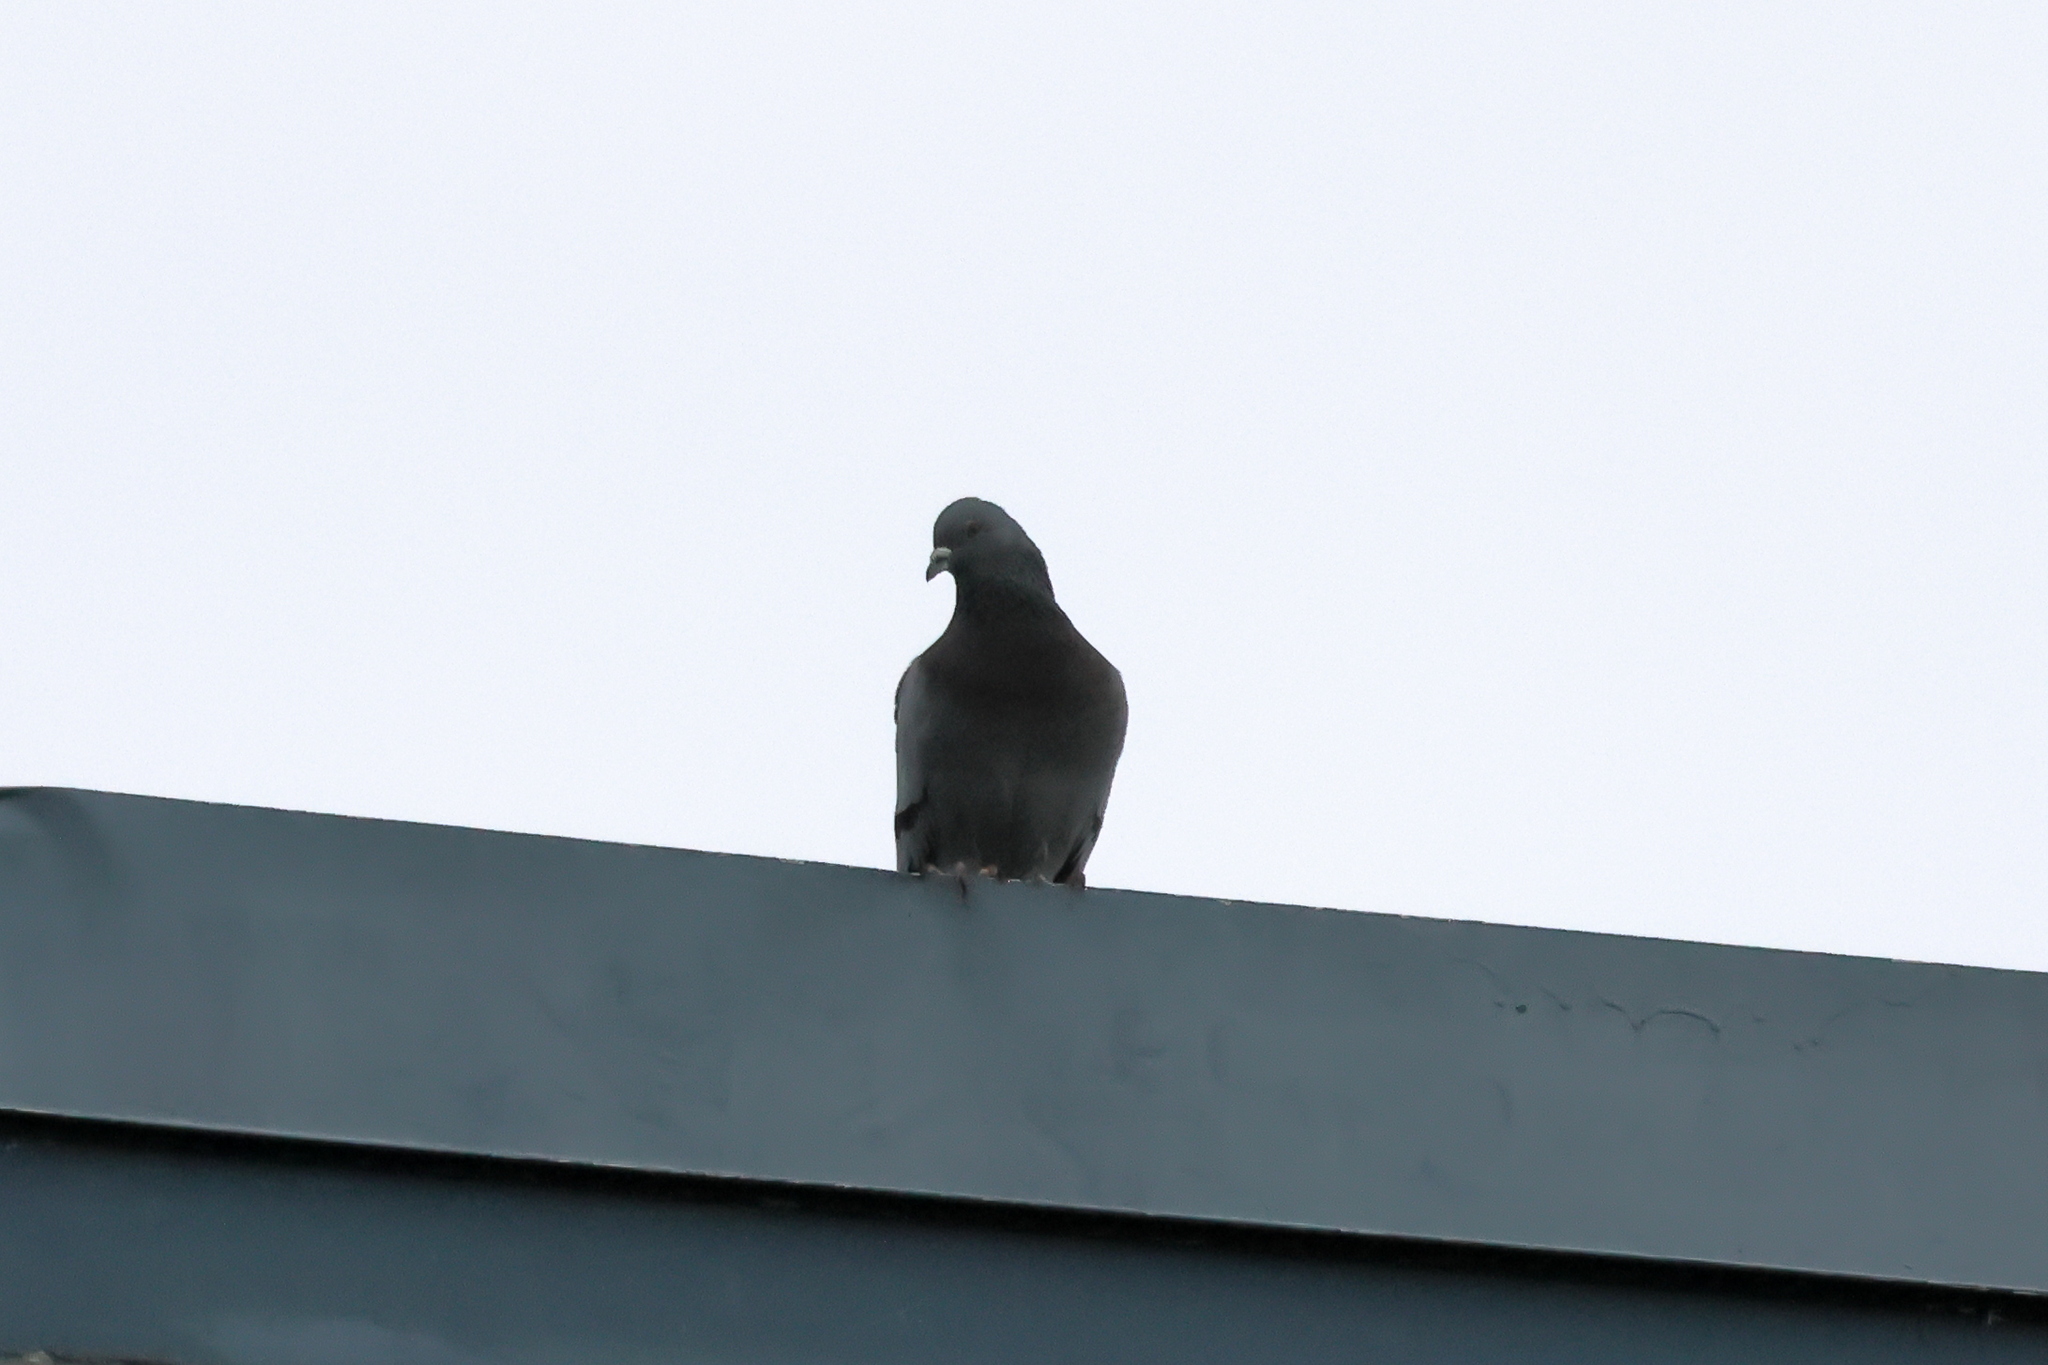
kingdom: Animalia
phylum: Chordata
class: Aves
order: Columbiformes
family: Columbidae
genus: Columba
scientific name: Columba livia
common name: Rock pigeon
